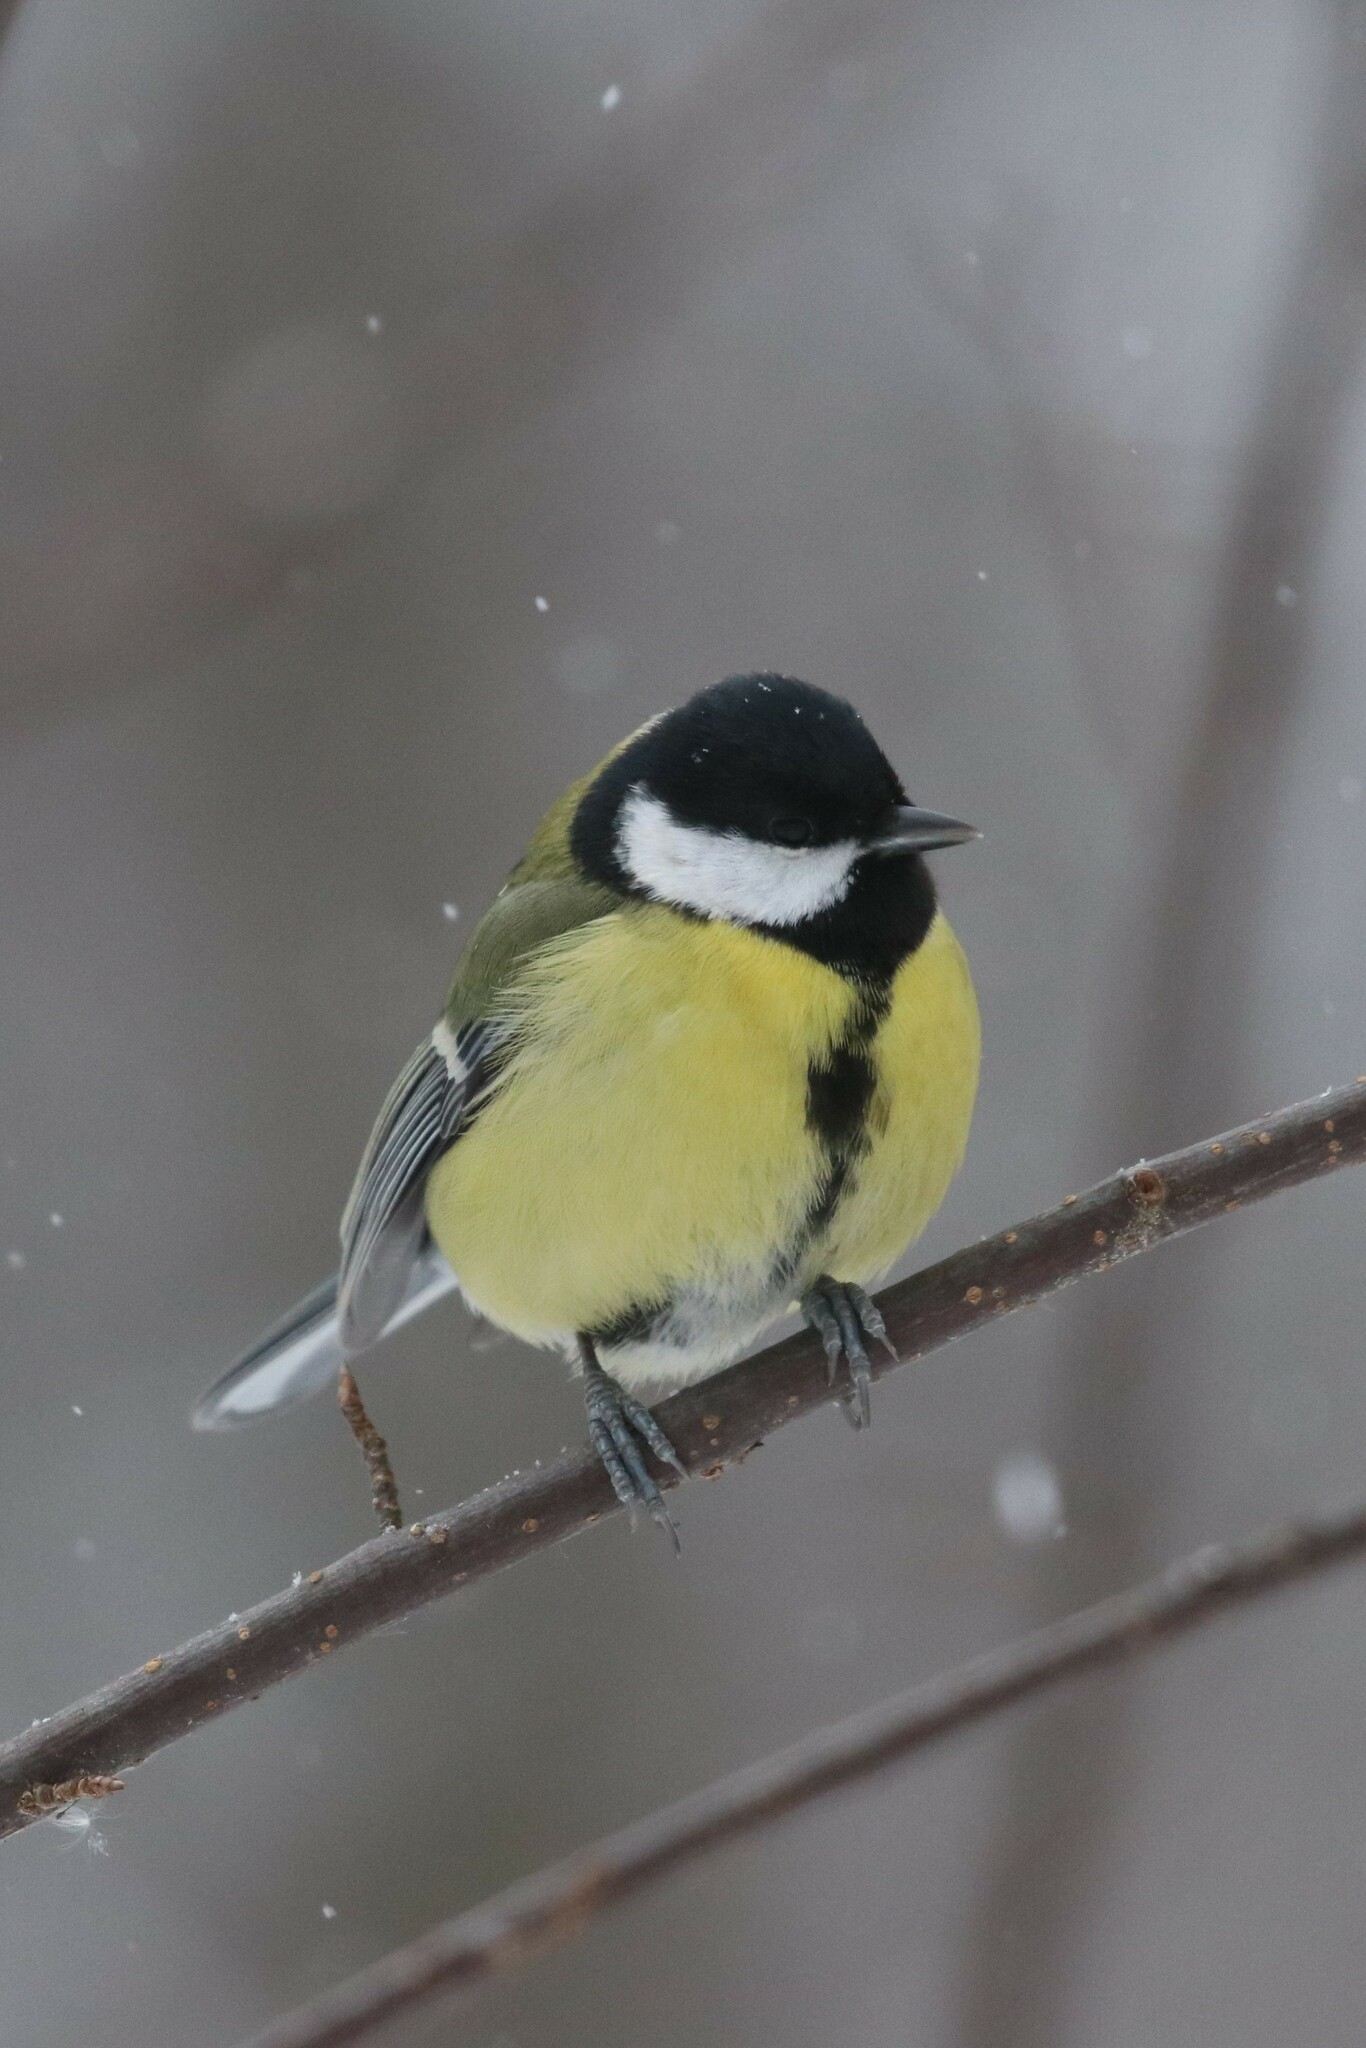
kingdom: Animalia
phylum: Chordata
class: Aves
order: Passeriformes
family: Paridae
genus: Parus
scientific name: Parus major
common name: Great tit
